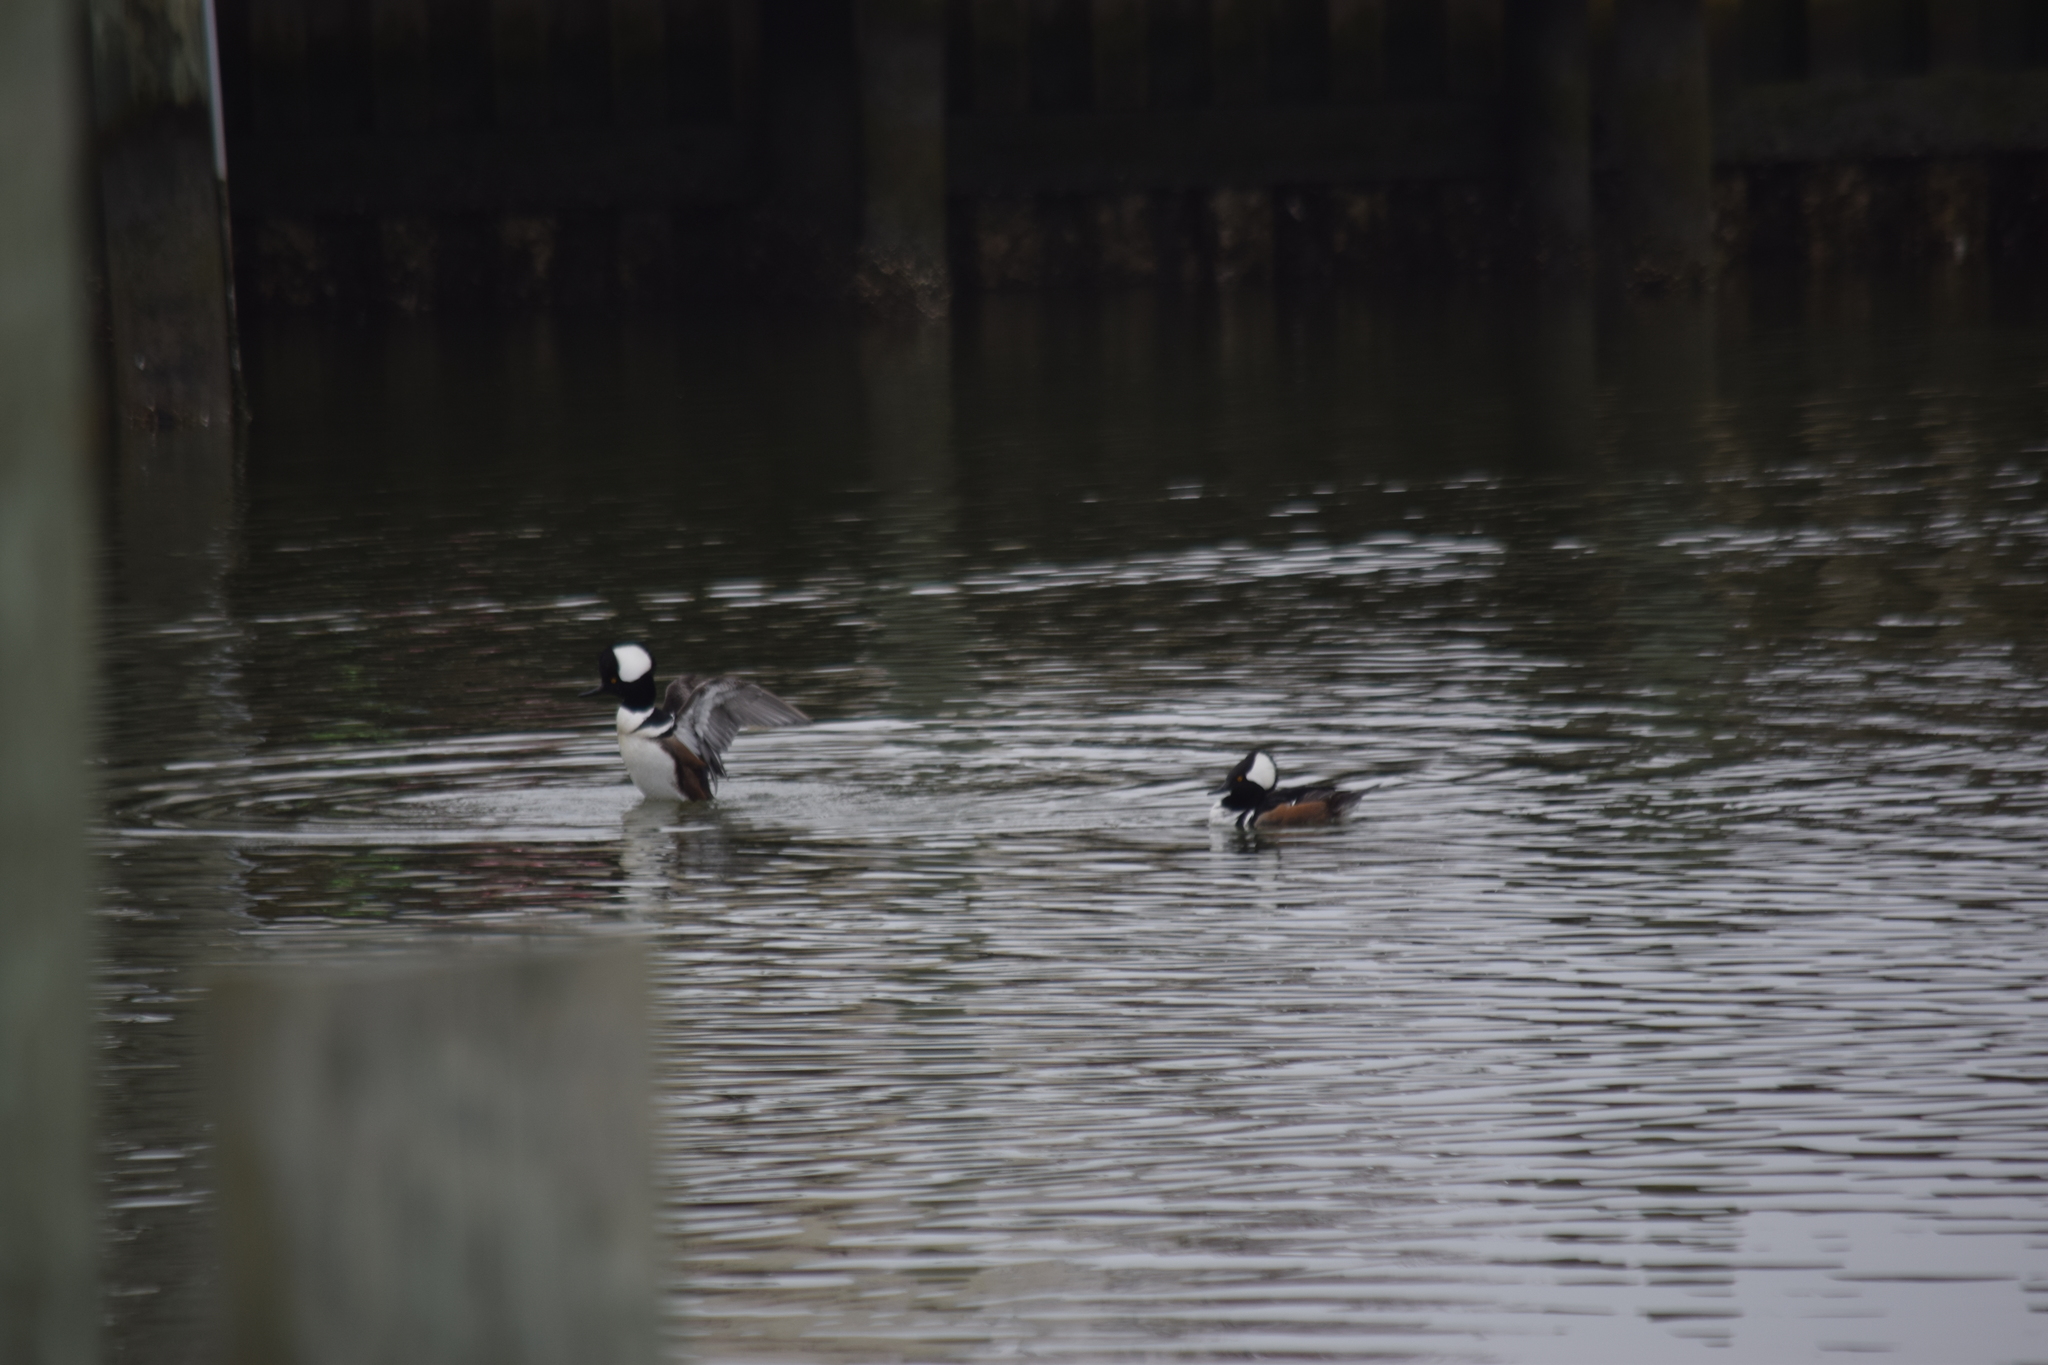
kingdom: Animalia
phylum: Chordata
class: Aves
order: Anseriformes
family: Anatidae
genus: Lophodytes
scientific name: Lophodytes cucullatus
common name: Hooded merganser
